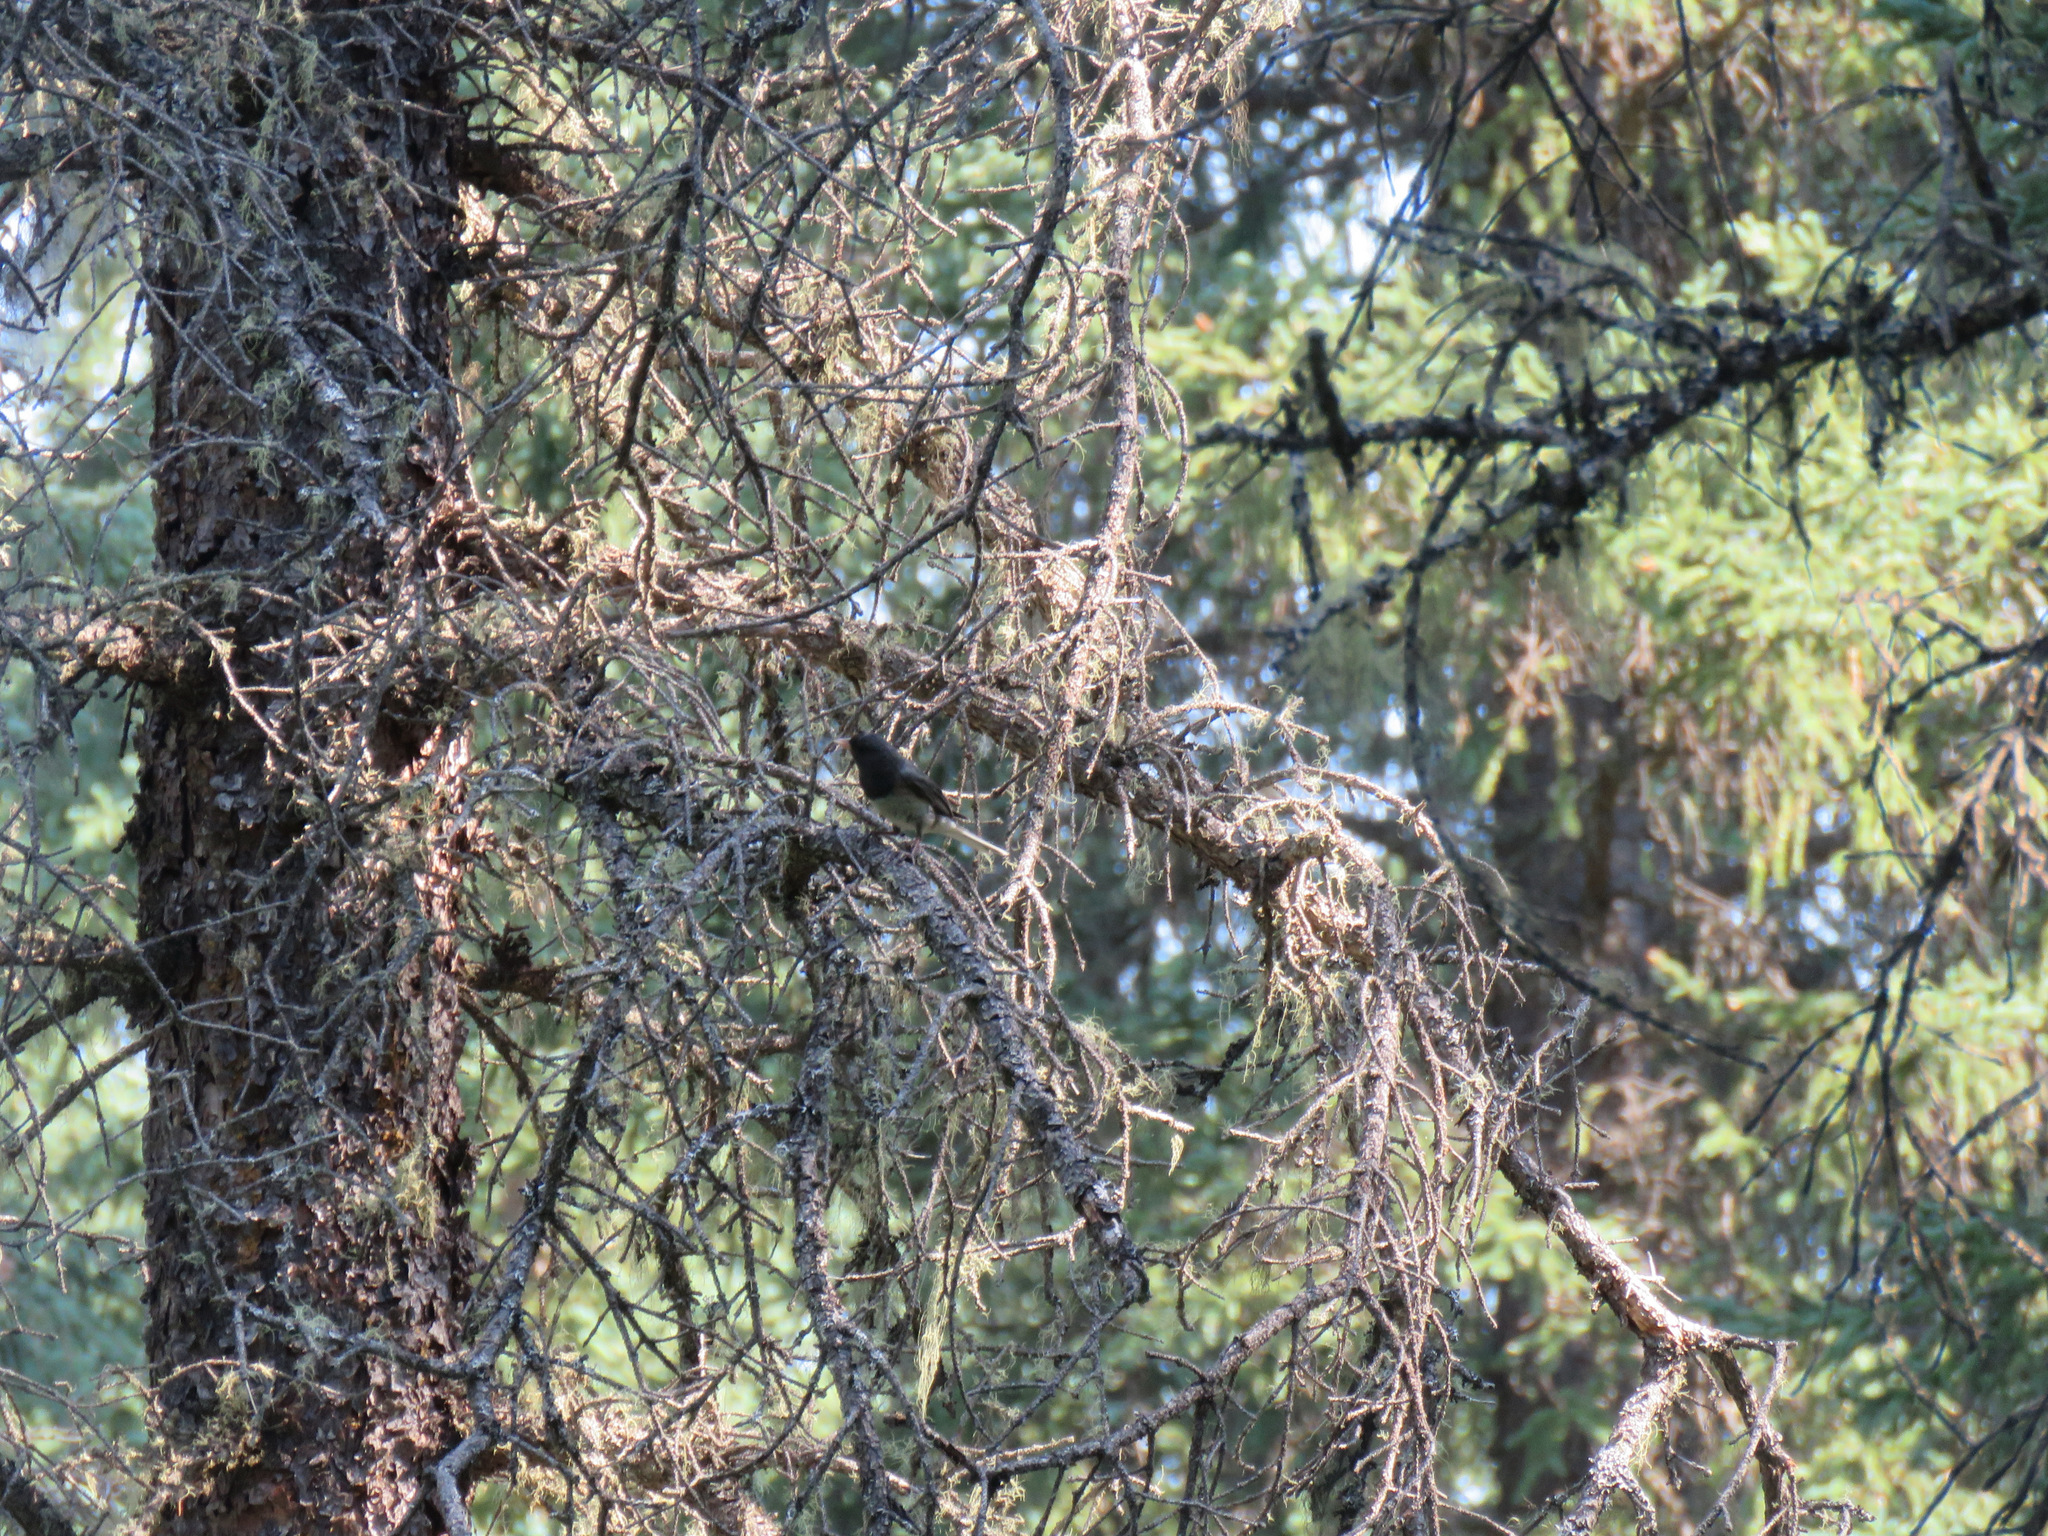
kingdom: Animalia
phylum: Chordata
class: Aves
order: Passeriformes
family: Passerellidae
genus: Junco
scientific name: Junco hyemalis
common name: Dark-eyed junco
